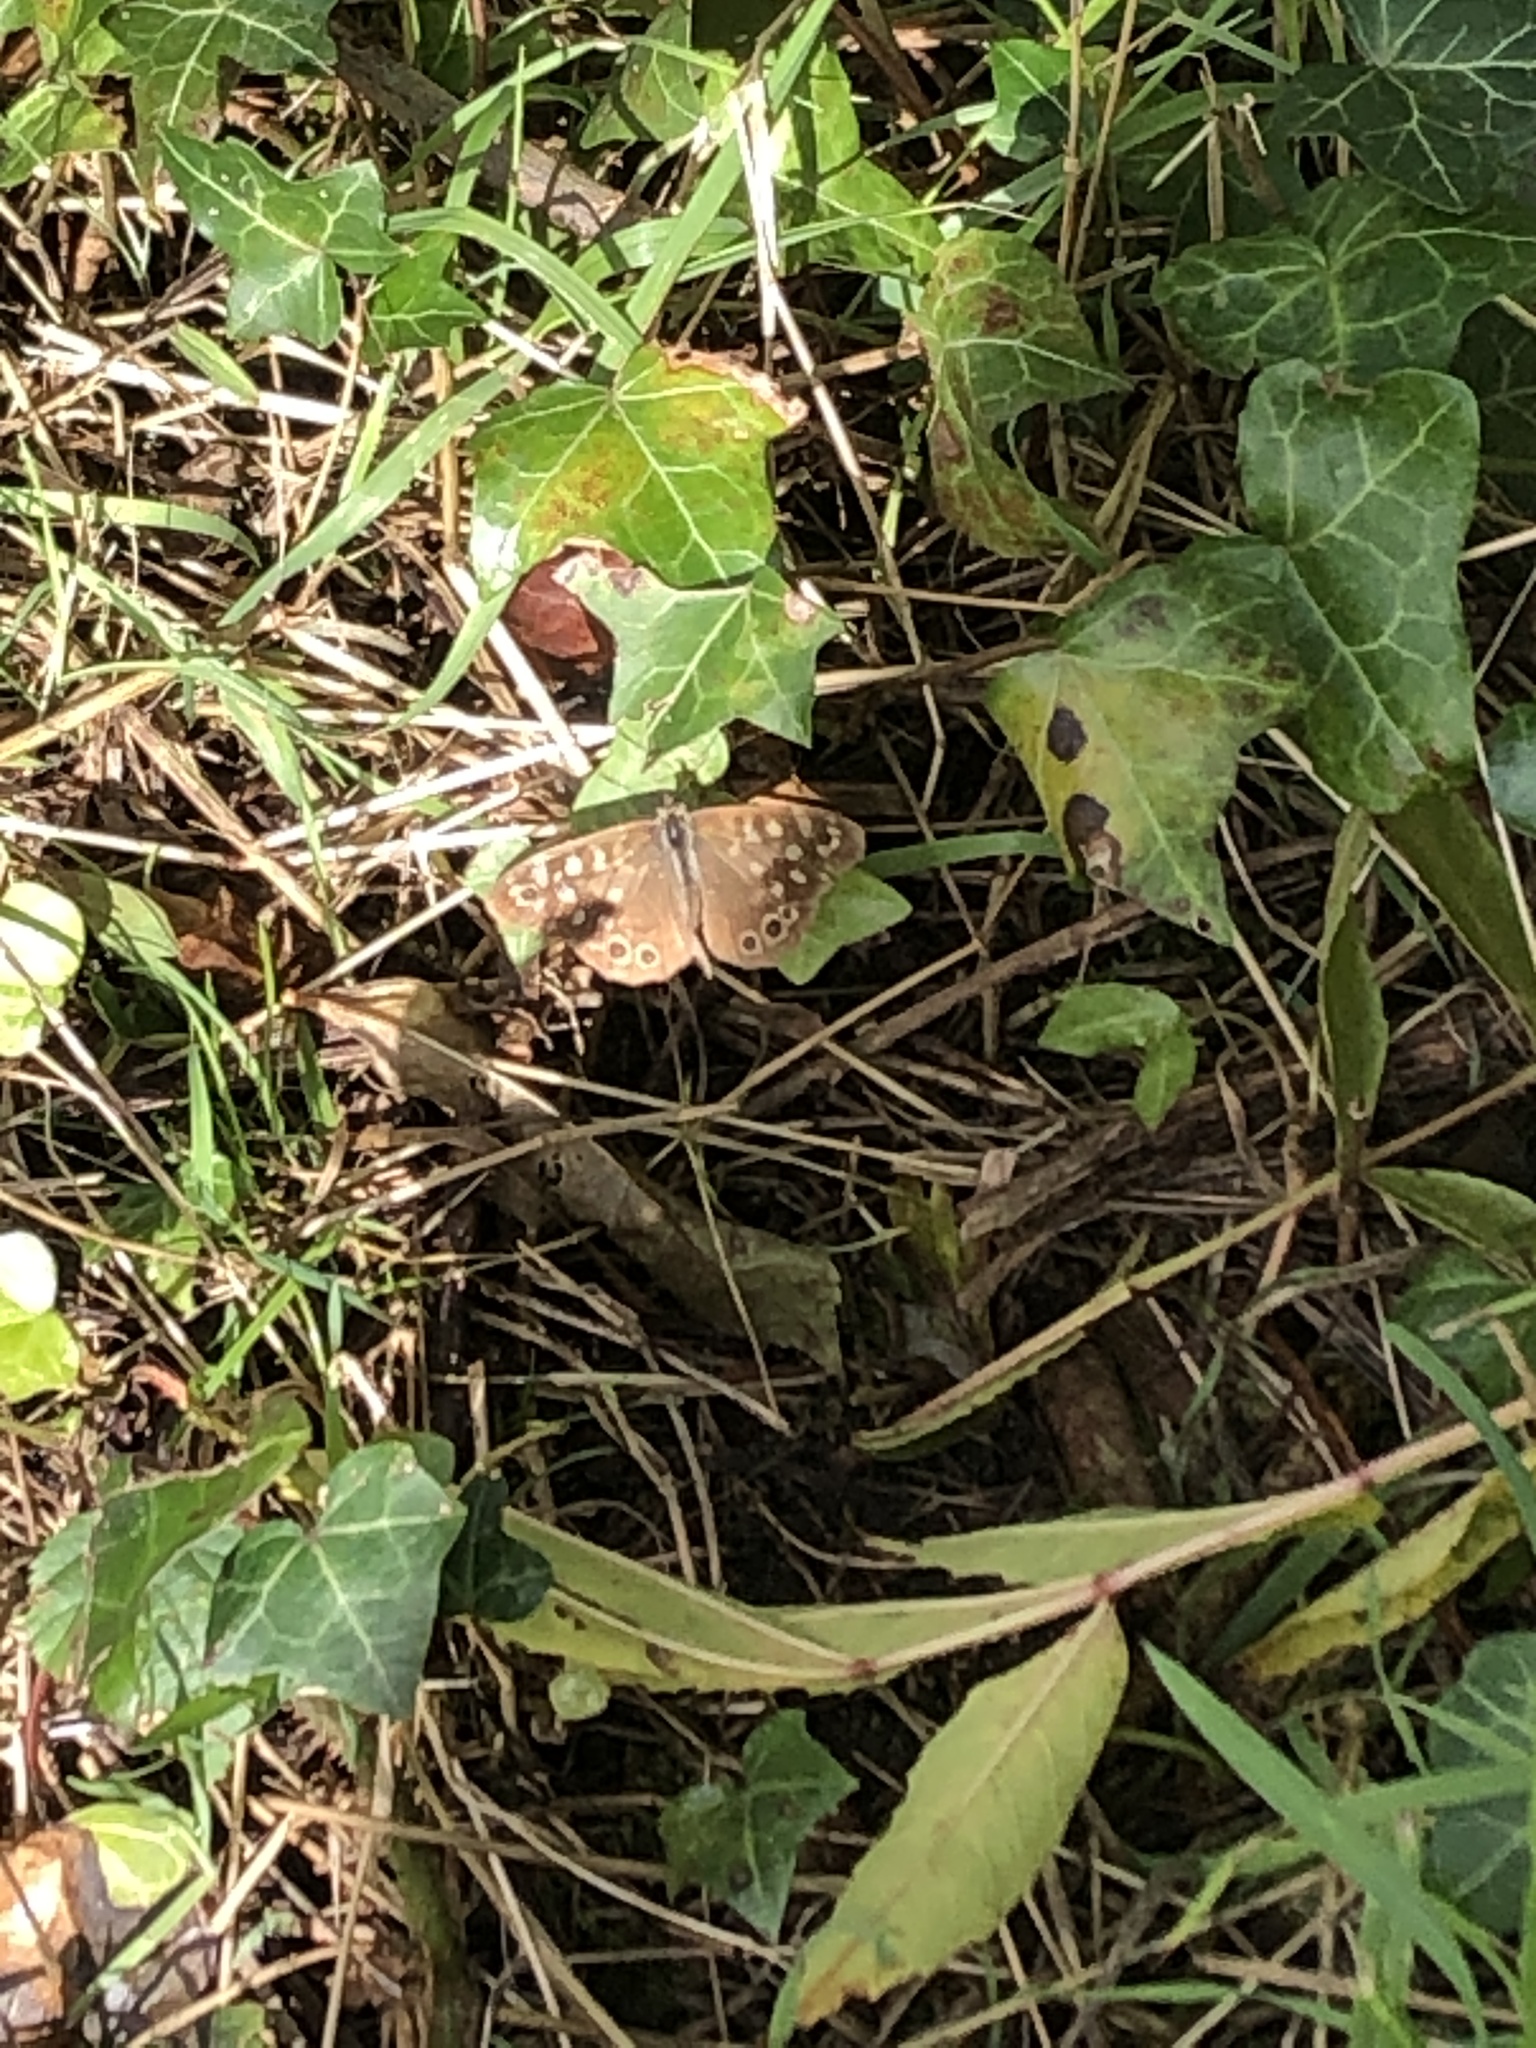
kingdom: Animalia
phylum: Arthropoda
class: Insecta
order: Lepidoptera
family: Nymphalidae
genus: Pararge
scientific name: Pararge aegeria
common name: Speckled wood
